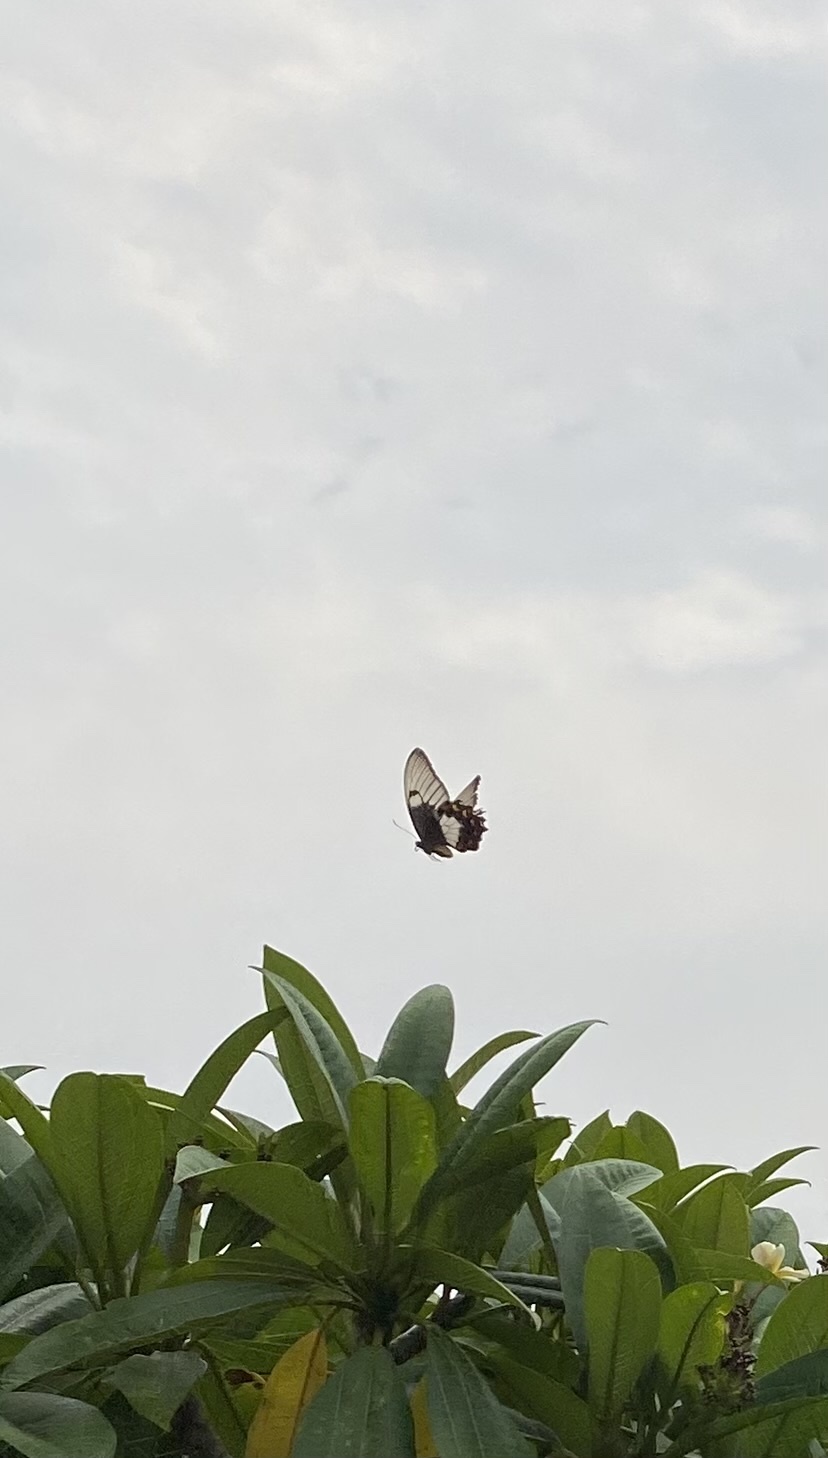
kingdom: Animalia
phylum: Arthropoda
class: Insecta
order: Lepidoptera
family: Papilionidae
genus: Papilio
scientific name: Papilio aegeus
